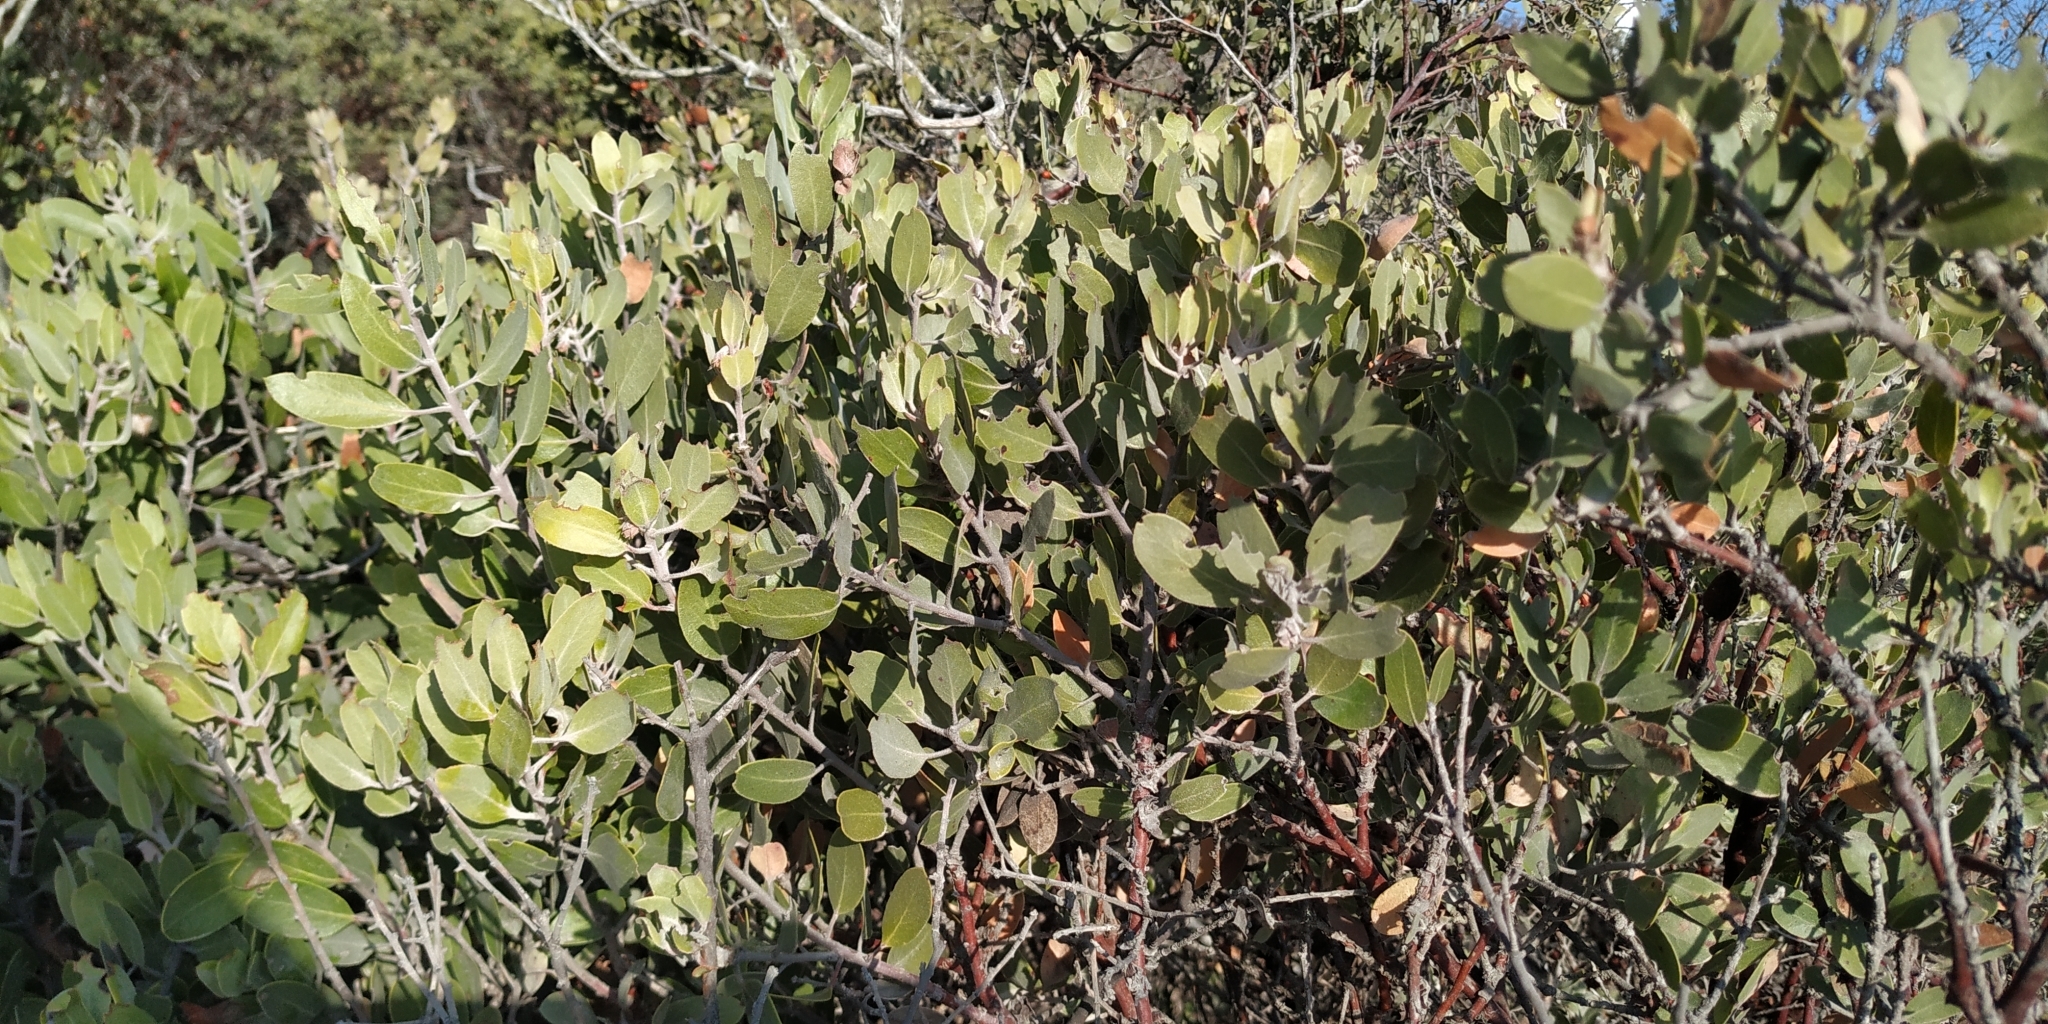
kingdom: Plantae
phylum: Tracheophyta
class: Magnoliopsida
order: Ericales
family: Ericaceae
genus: Arctostaphylos
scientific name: Arctostaphylos pungens
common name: Mexican manzanita
